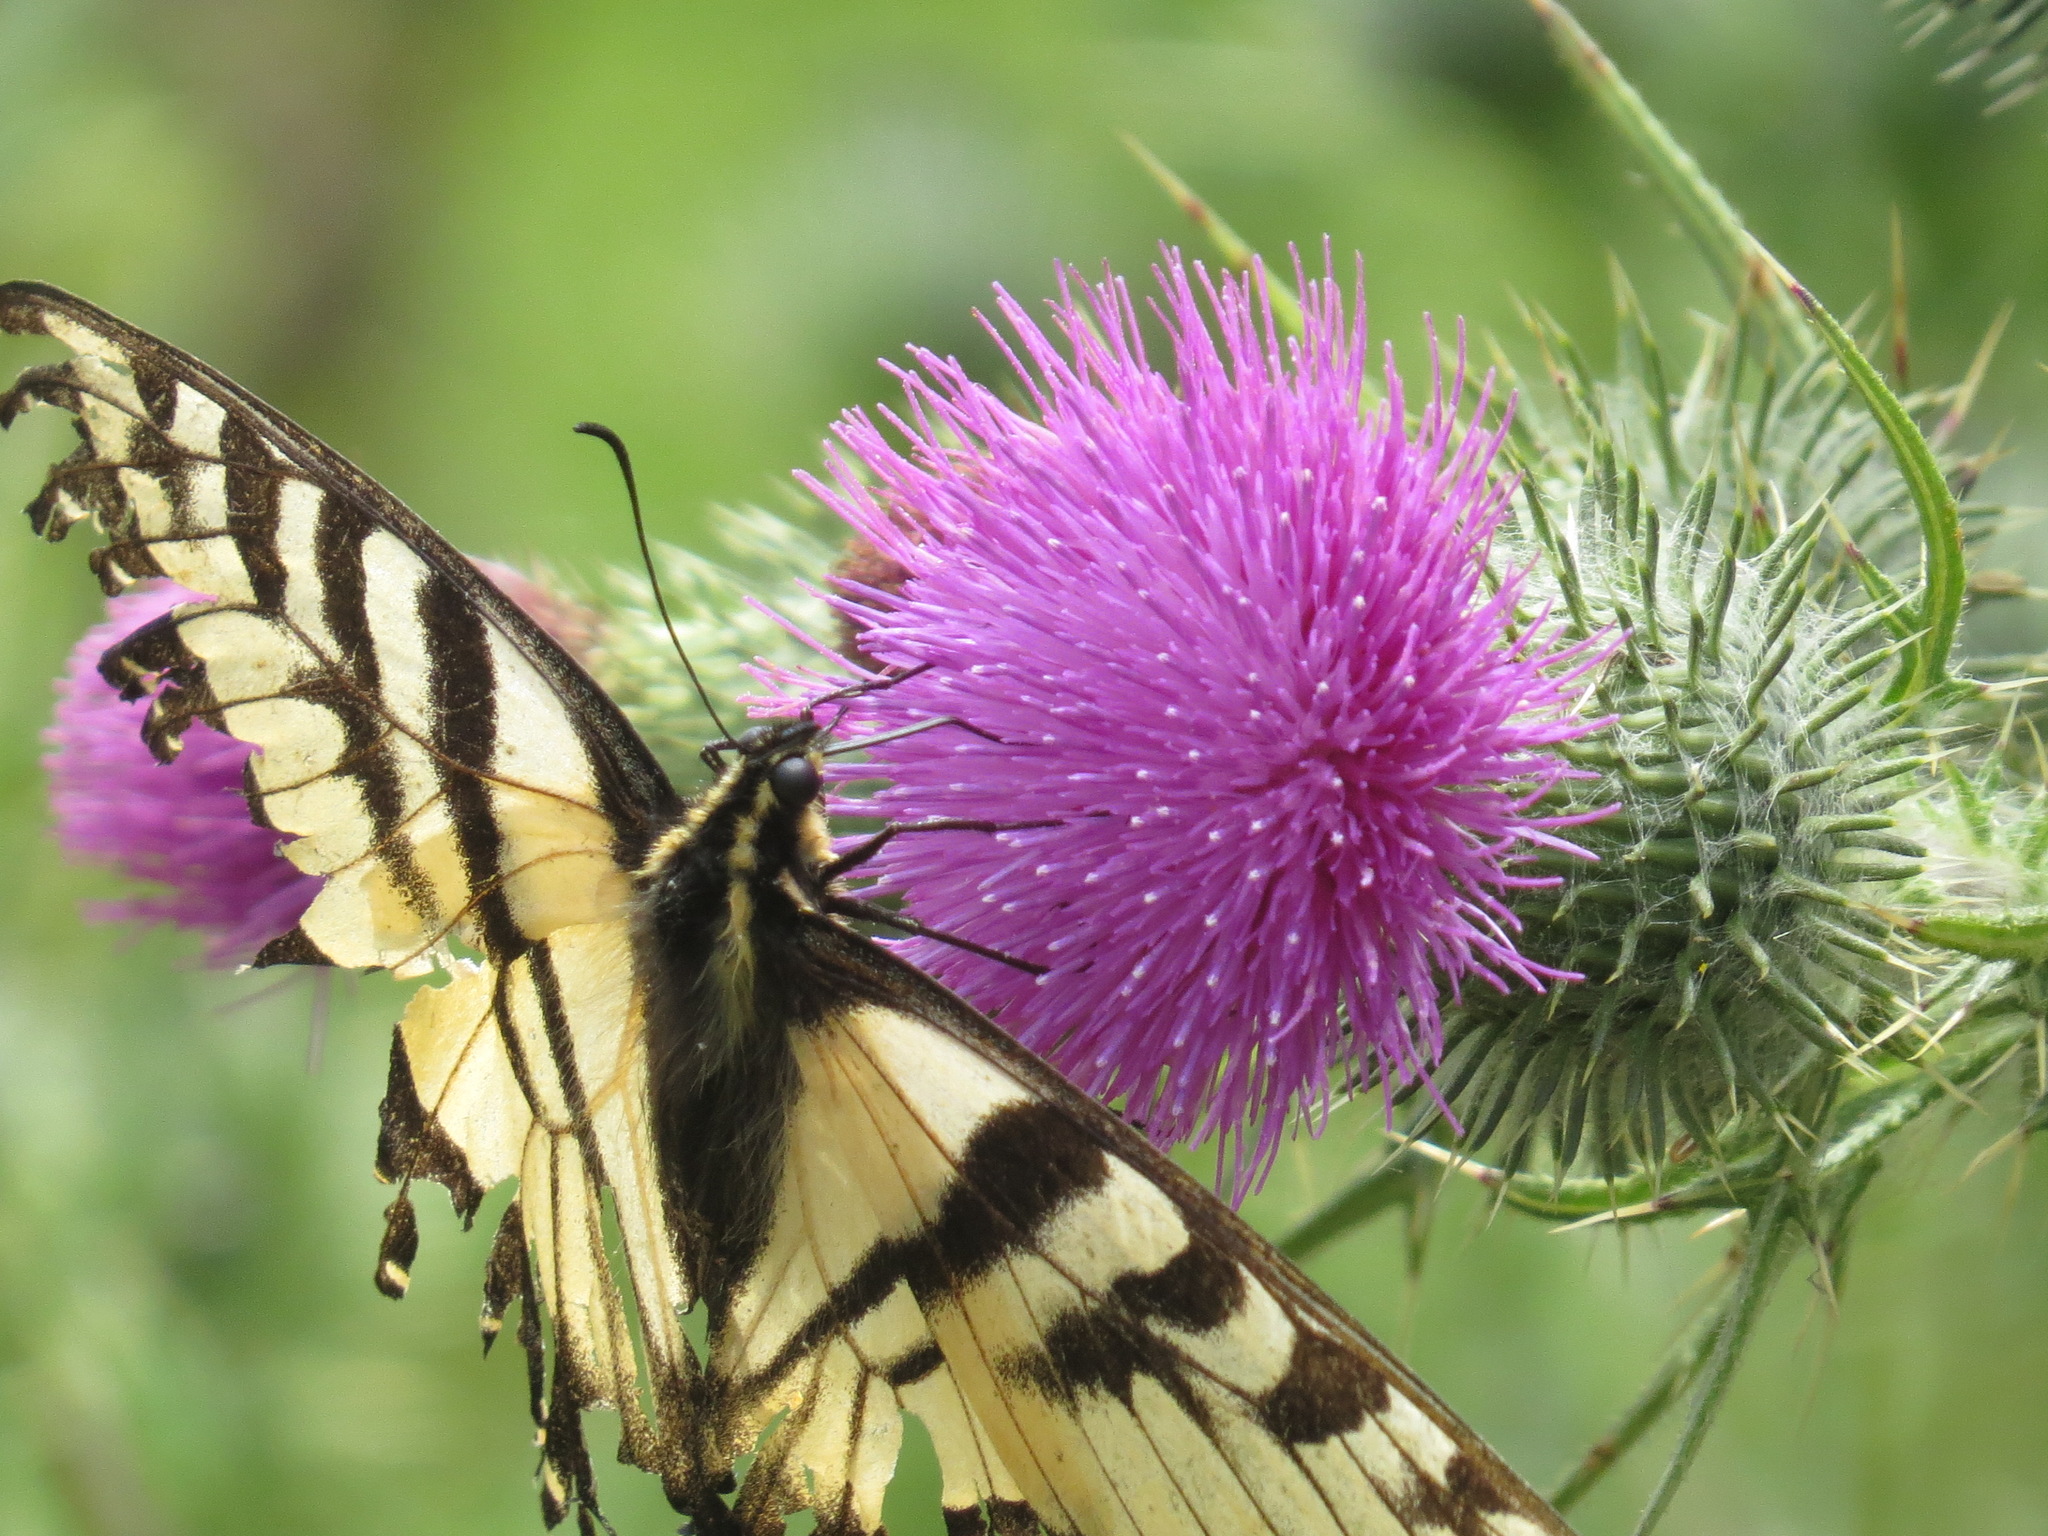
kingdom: Animalia
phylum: Arthropoda
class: Insecta
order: Lepidoptera
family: Papilionidae
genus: Papilio
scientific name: Papilio rutulus
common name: Western tiger swallowtail
